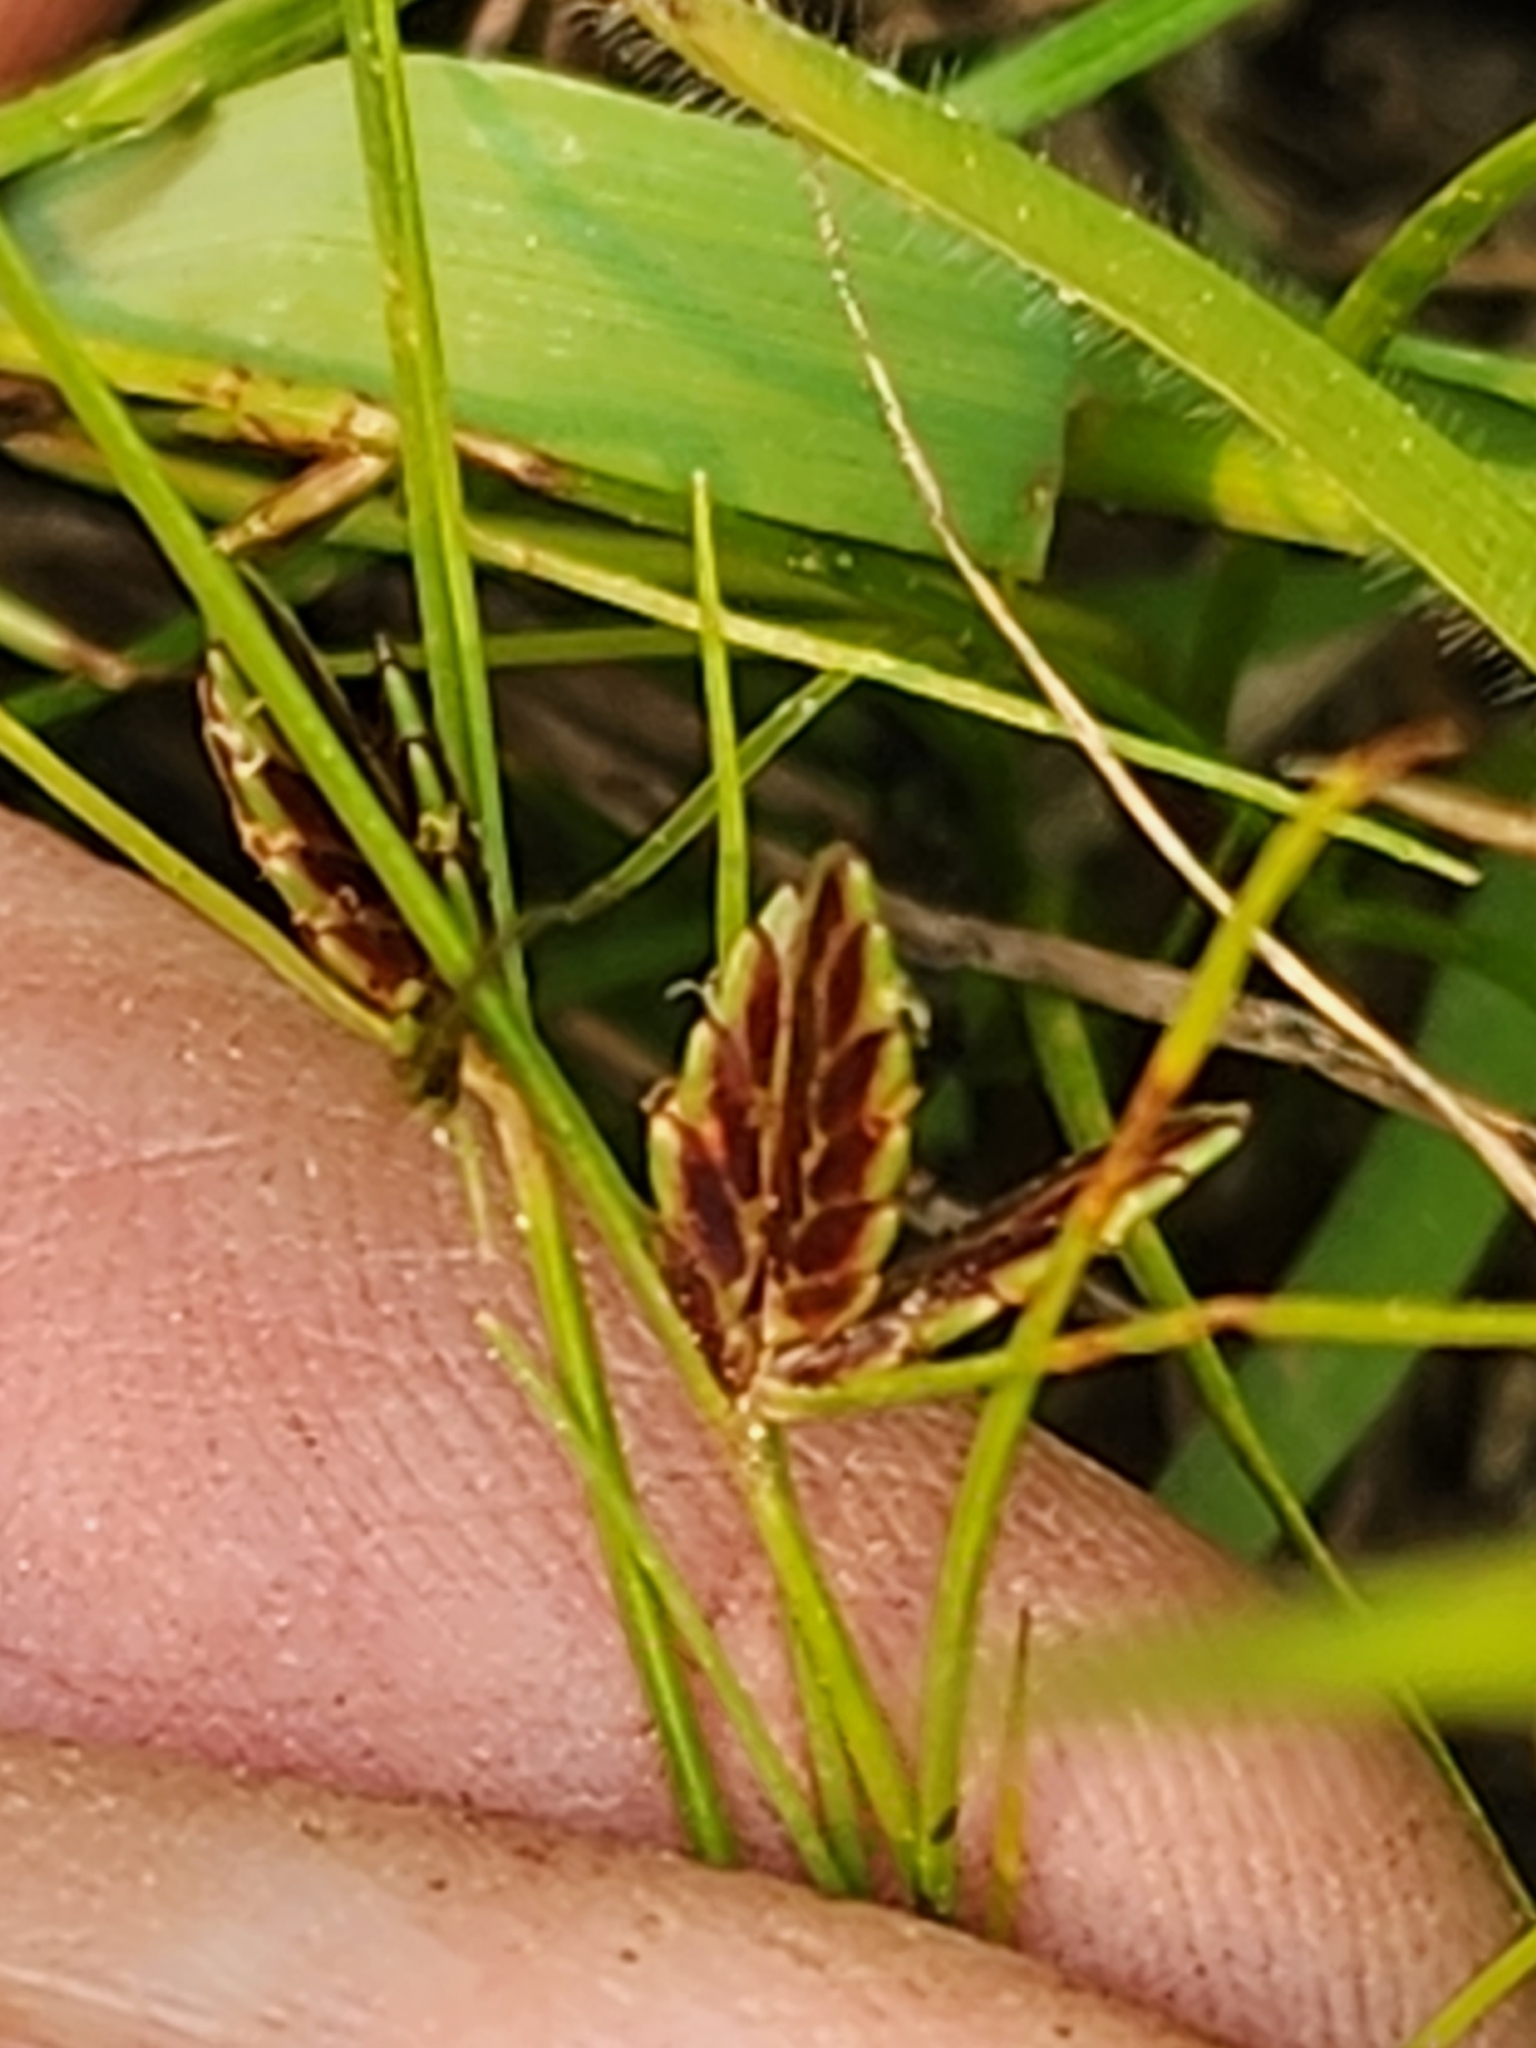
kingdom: Plantae
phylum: Tracheophyta
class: Liliopsida
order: Poales
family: Cyperaceae
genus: Cyperus
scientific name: Cyperus bipartitus
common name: Brook flatsedge
